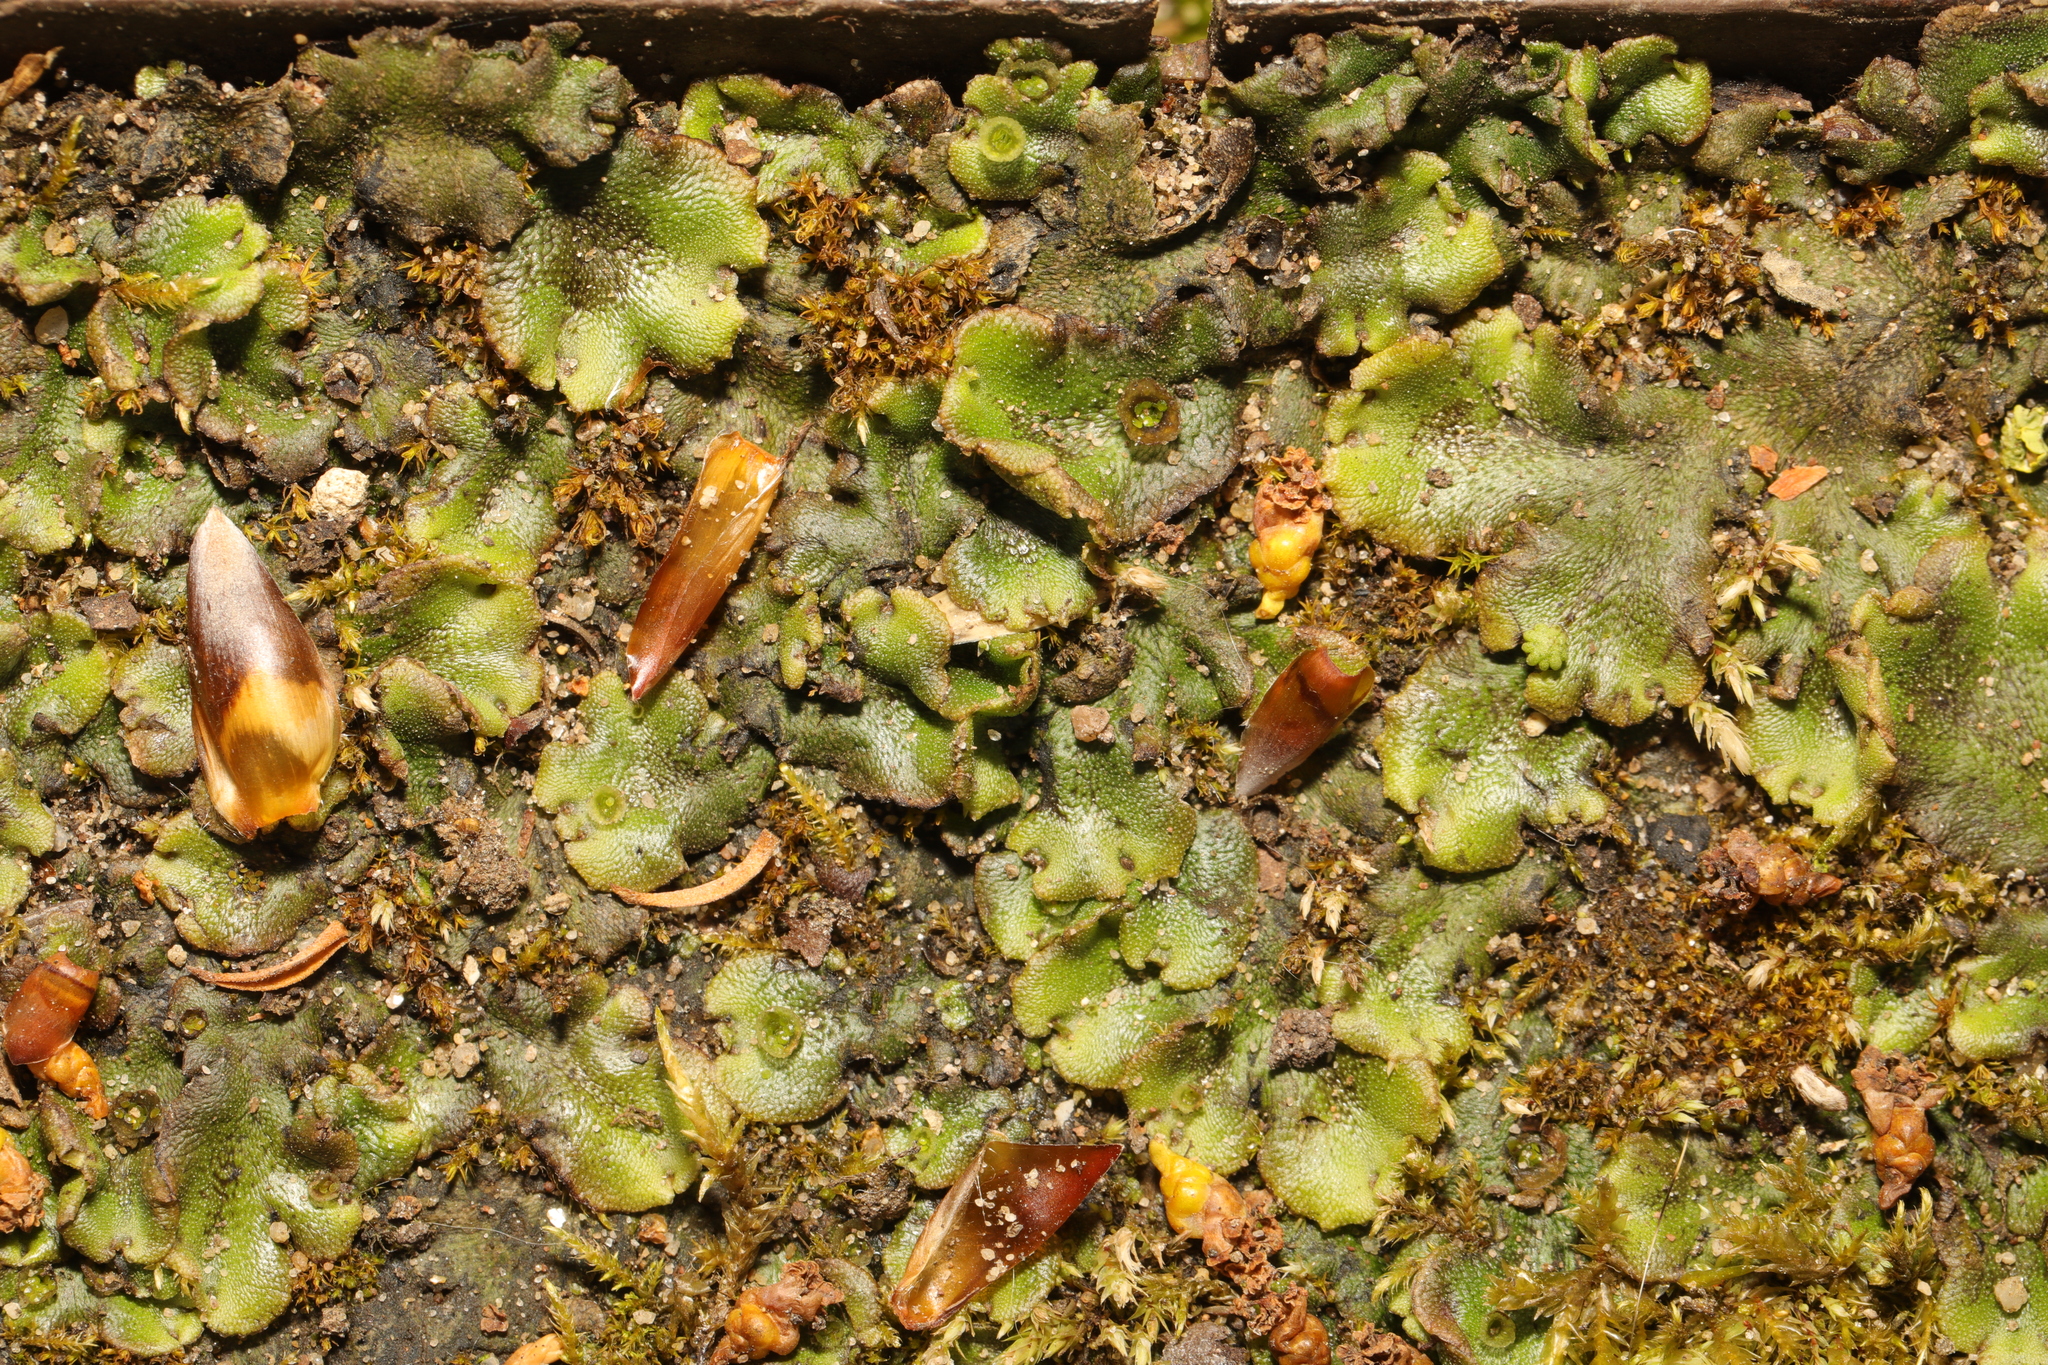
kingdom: Plantae
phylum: Marchantiophyta
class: Marchantiopsida
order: Marchantiales
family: Marchantiaceae
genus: Marchantia
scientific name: Marchantia polymorpha
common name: Common liverwort
